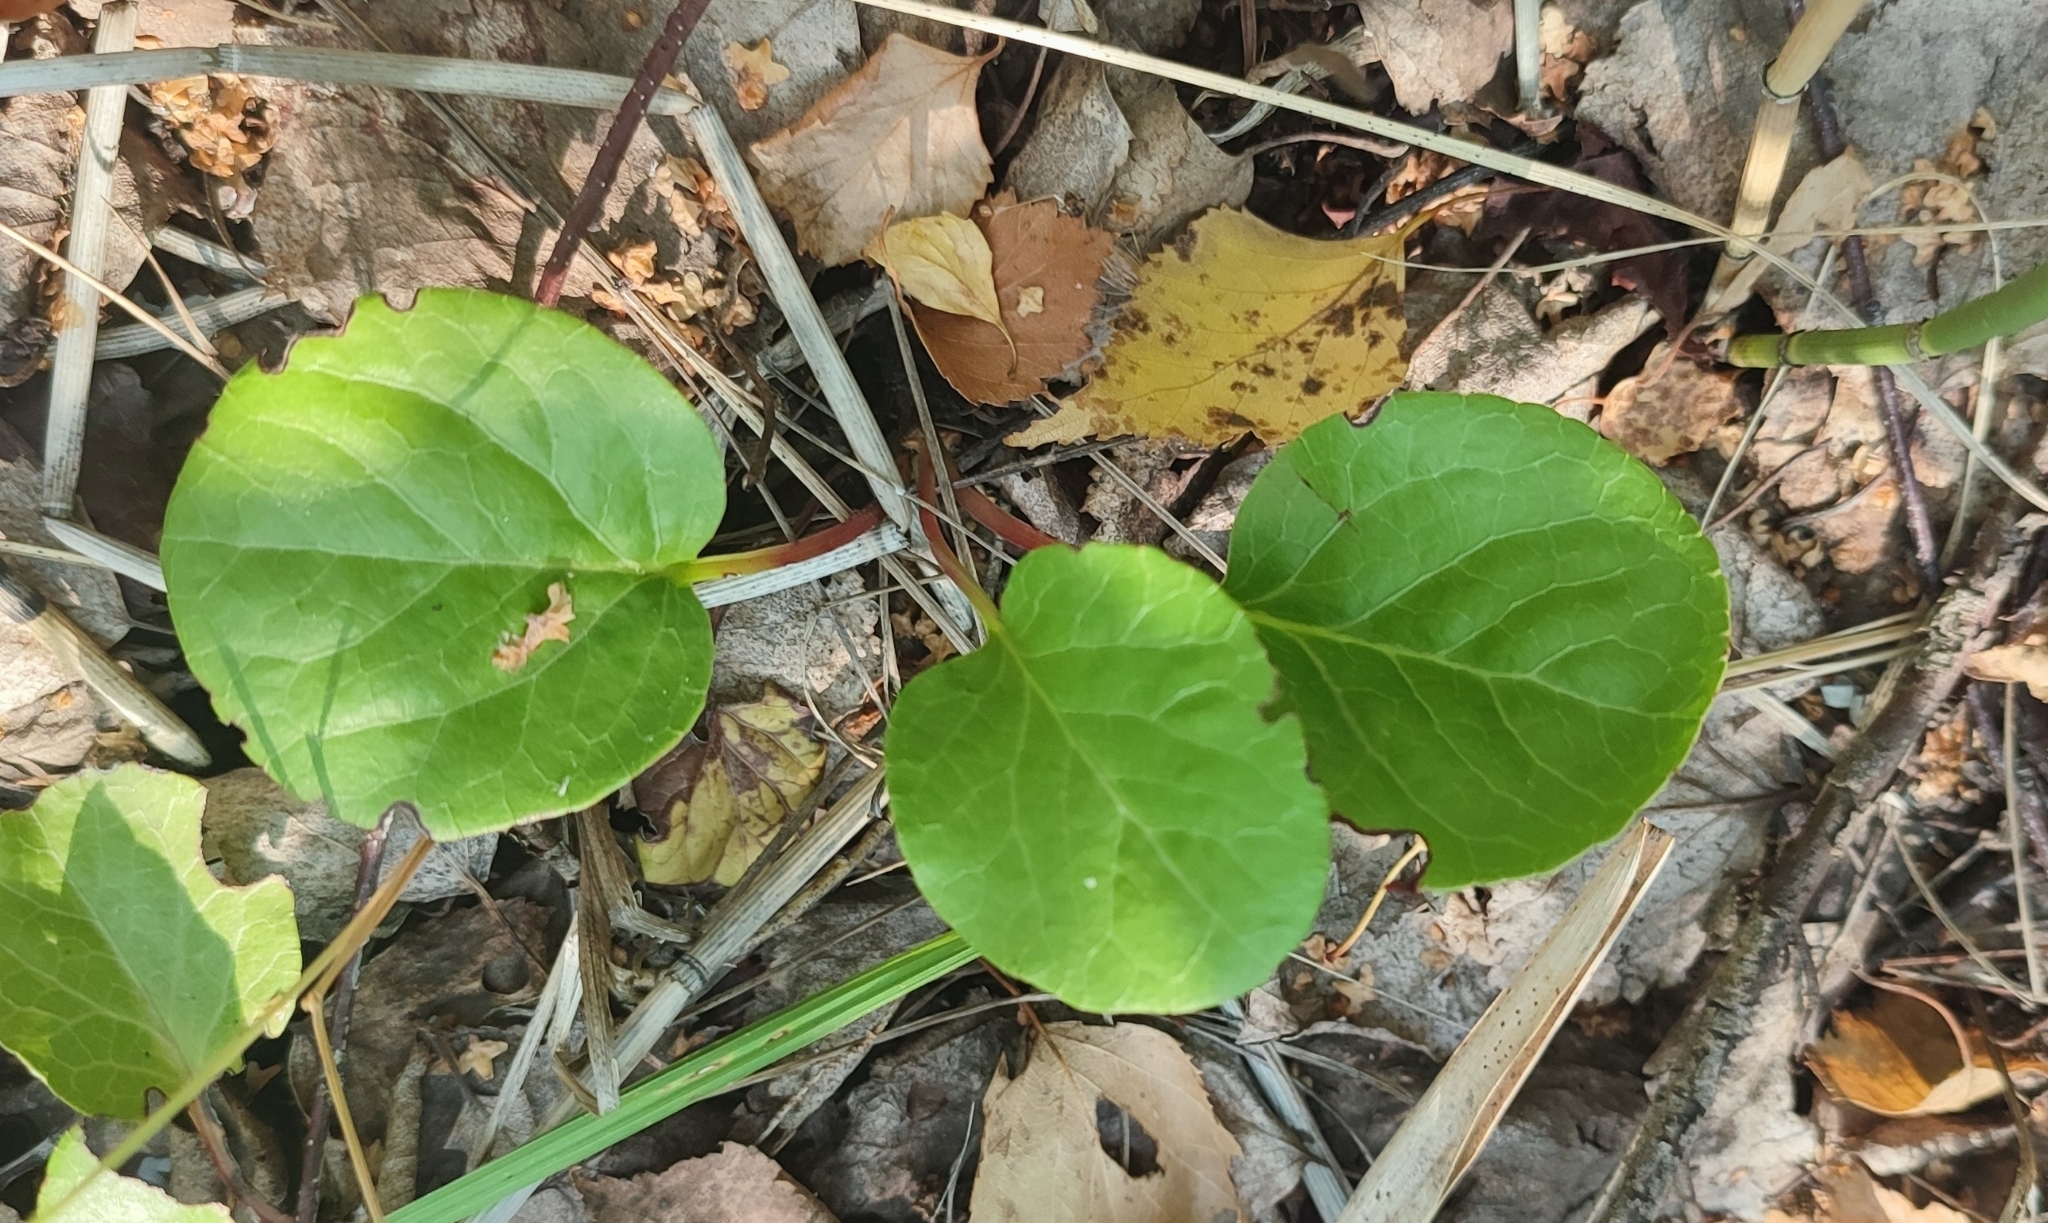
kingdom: Plantae
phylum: Tracheophyta
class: Magnoliopsida
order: Ericales
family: Ericaceae
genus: Pyrola
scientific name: Pyrola rotundifolia
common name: Round-leaved wintergreen
